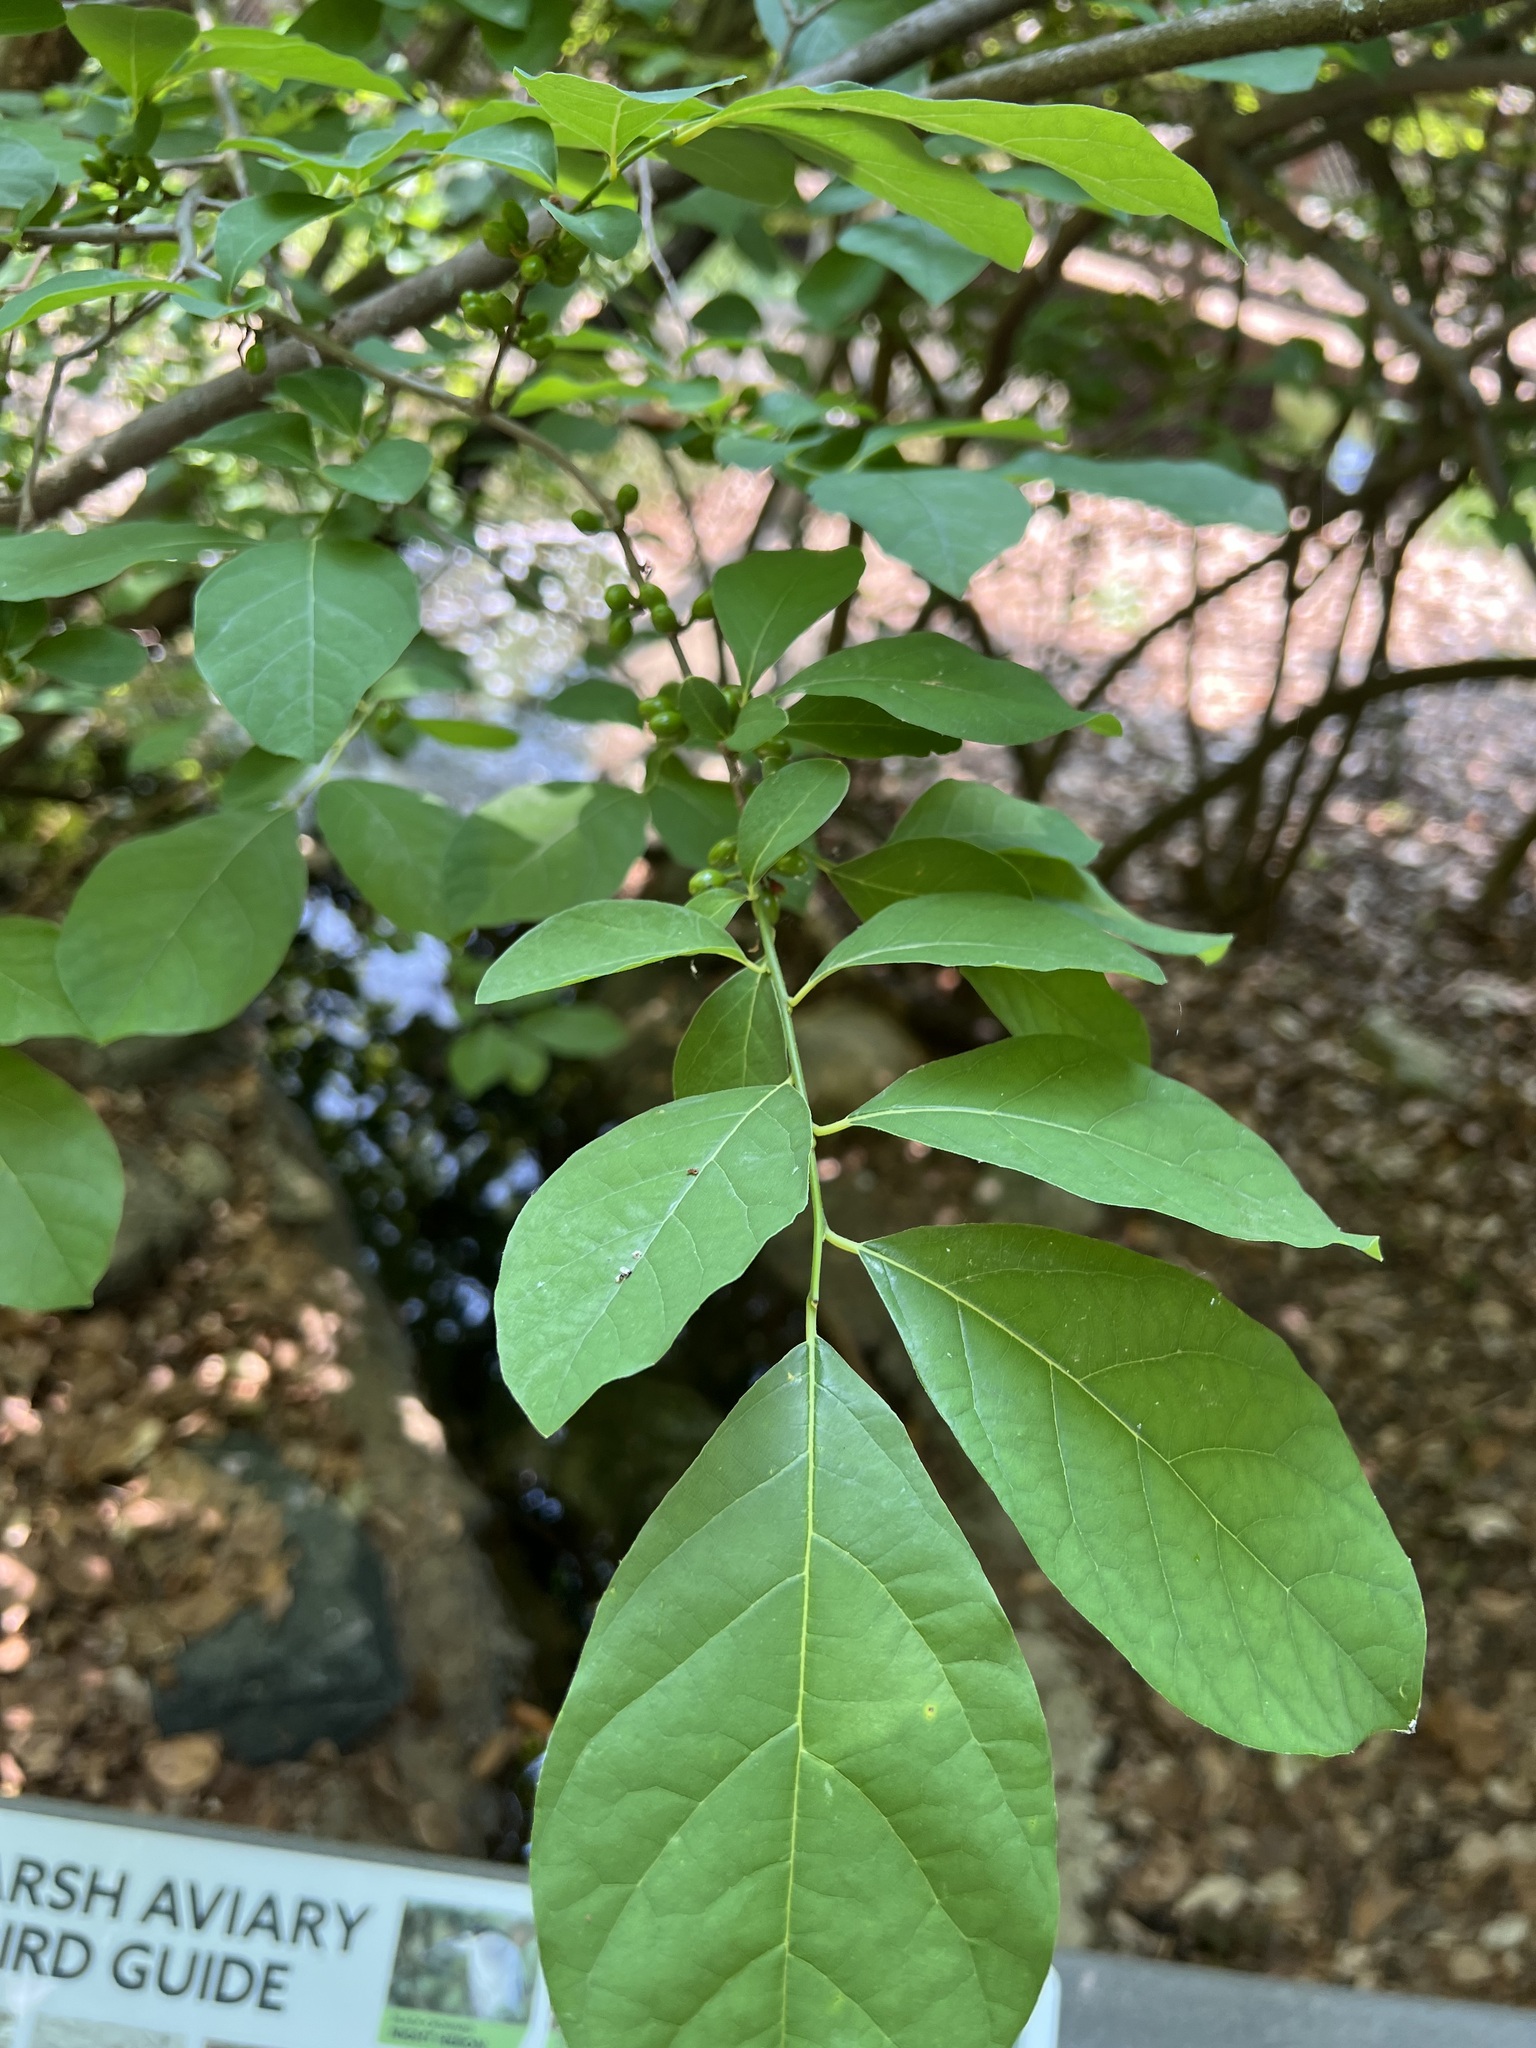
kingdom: Plantae
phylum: Tracheophyta
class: Magnoliopsida
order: Laurales
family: Lauraceae
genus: Lindera
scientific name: Lindera benzoin
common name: Spicebush
